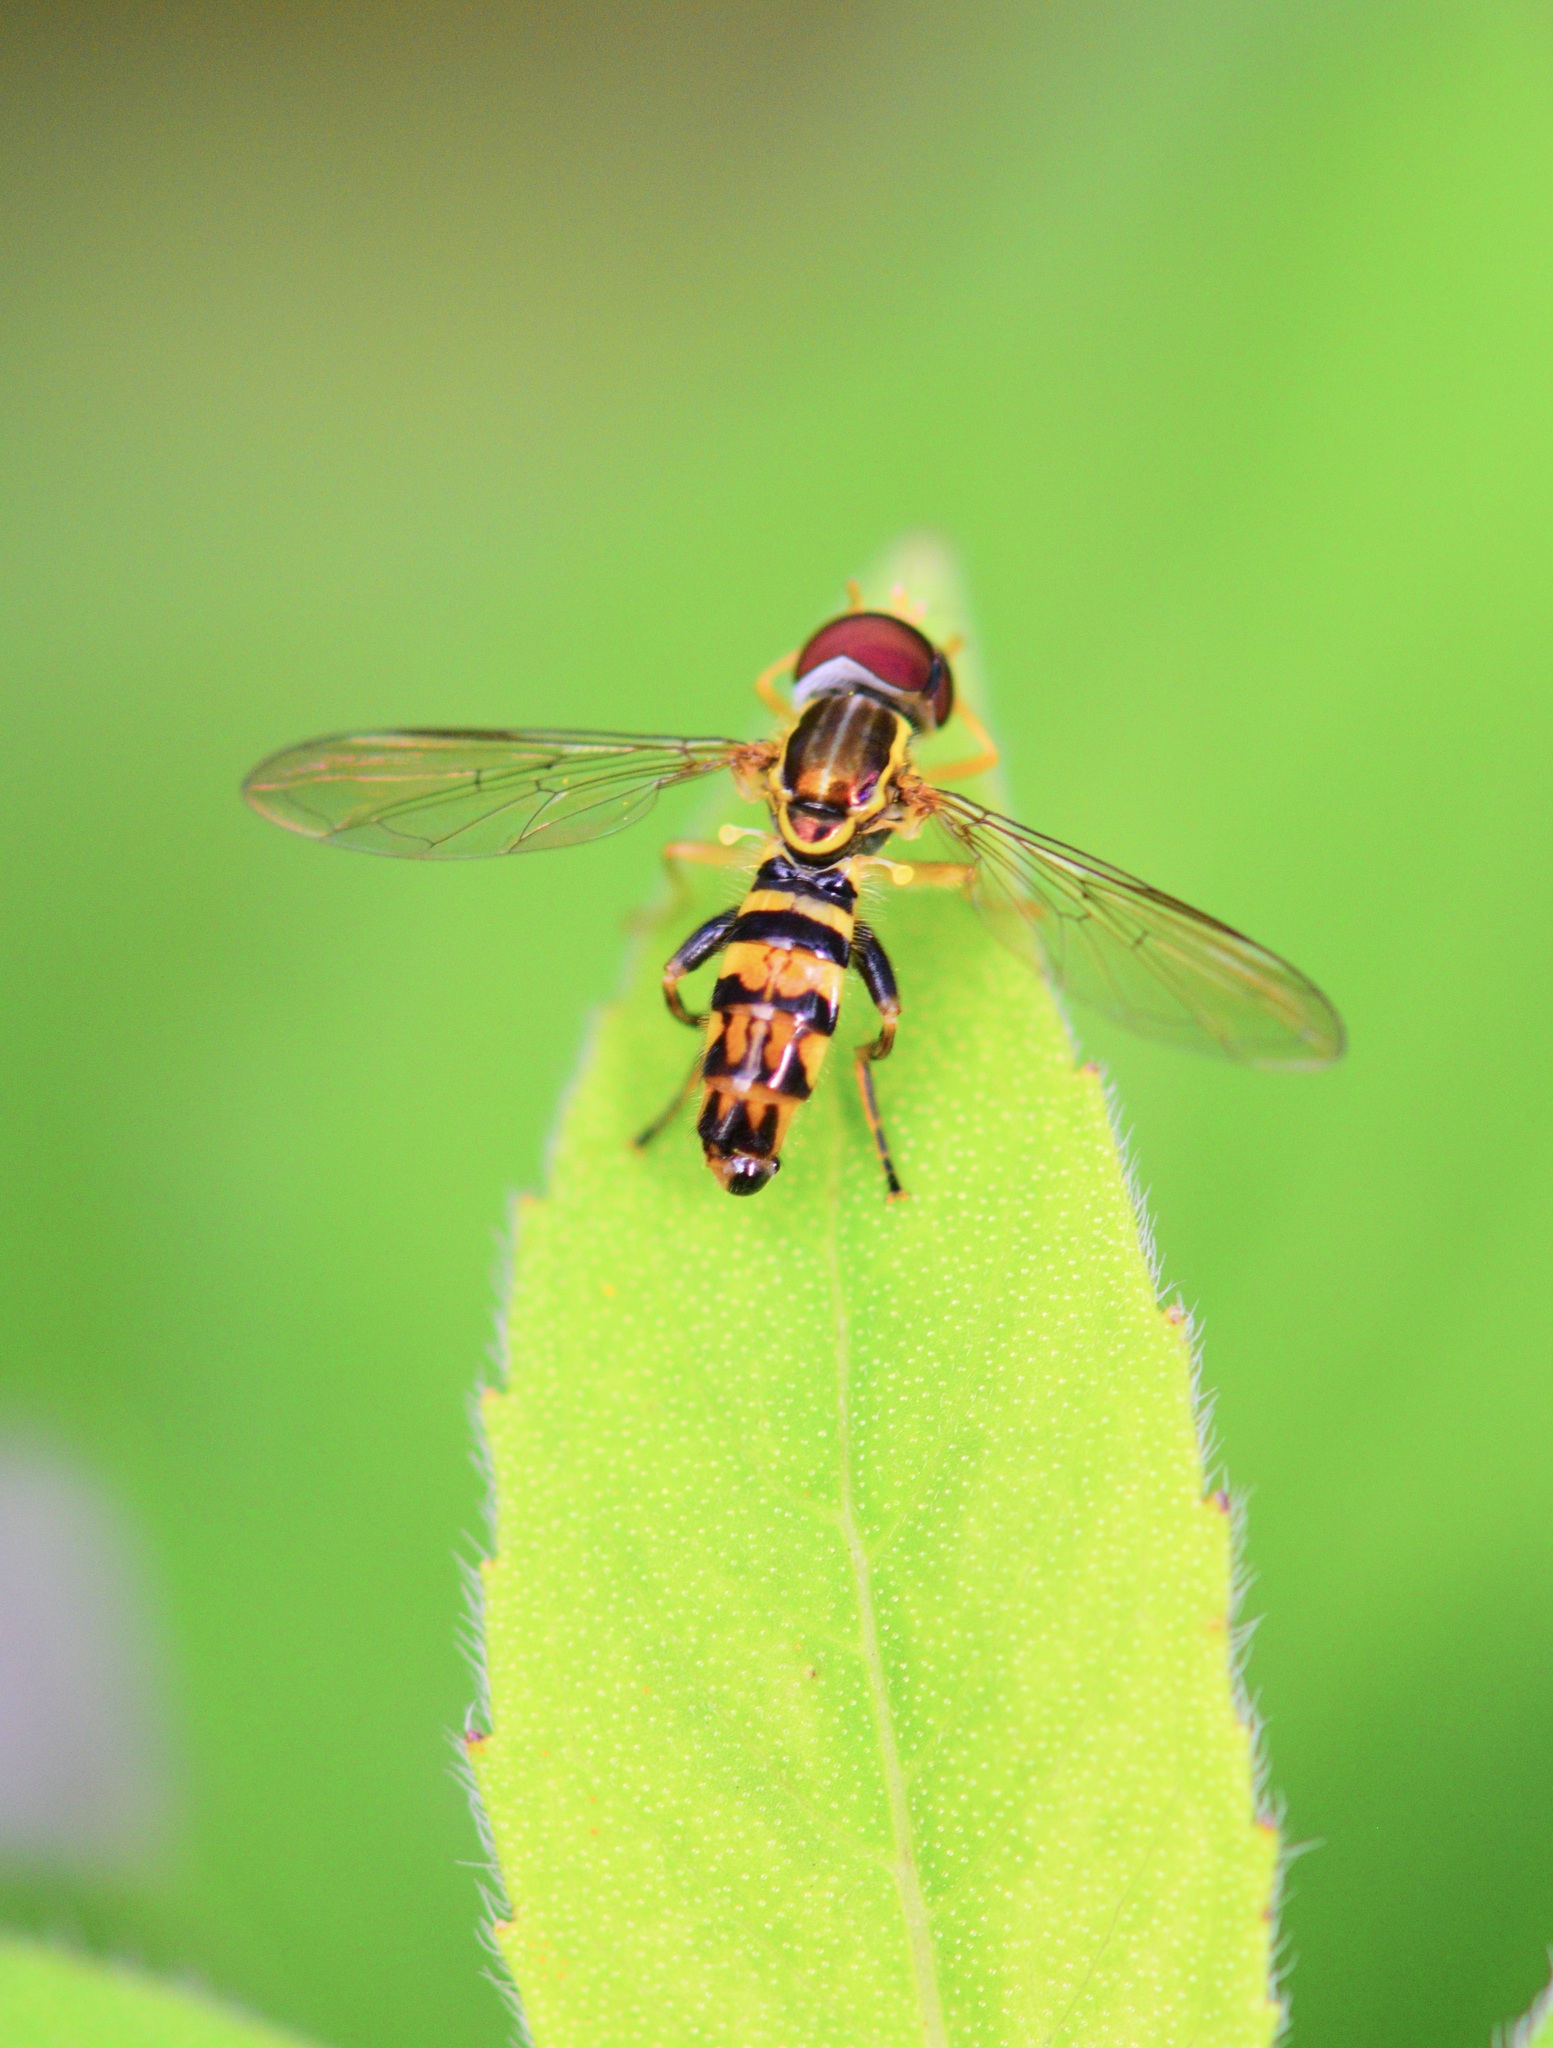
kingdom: Animalia
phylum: Arthropoda
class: Insecta
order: Diptera
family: Syrphidae
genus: Toxomerus
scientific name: Toxomerus geminatus
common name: Eastern calligrapher
